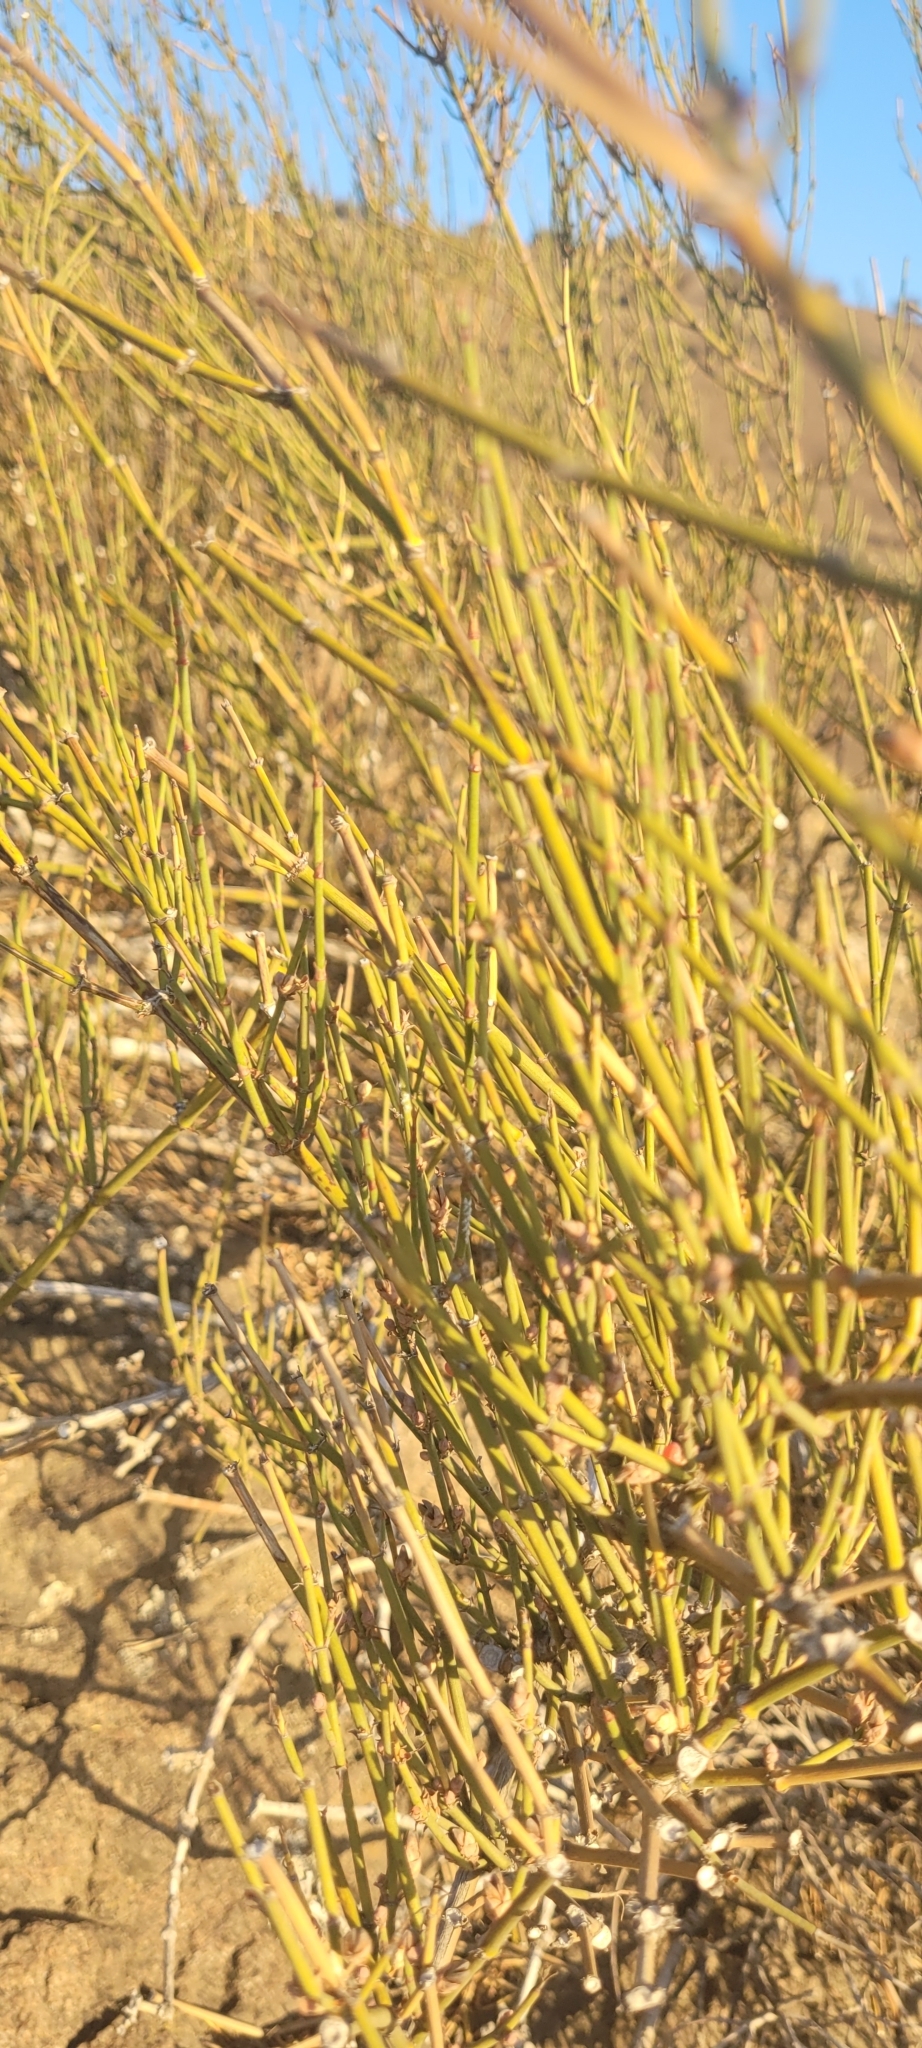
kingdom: Plantae
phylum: Tracheophyta
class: Gnetopsida
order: Ephedrales
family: Ephedraceae
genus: Ephedra
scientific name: Ephedra chilensis
